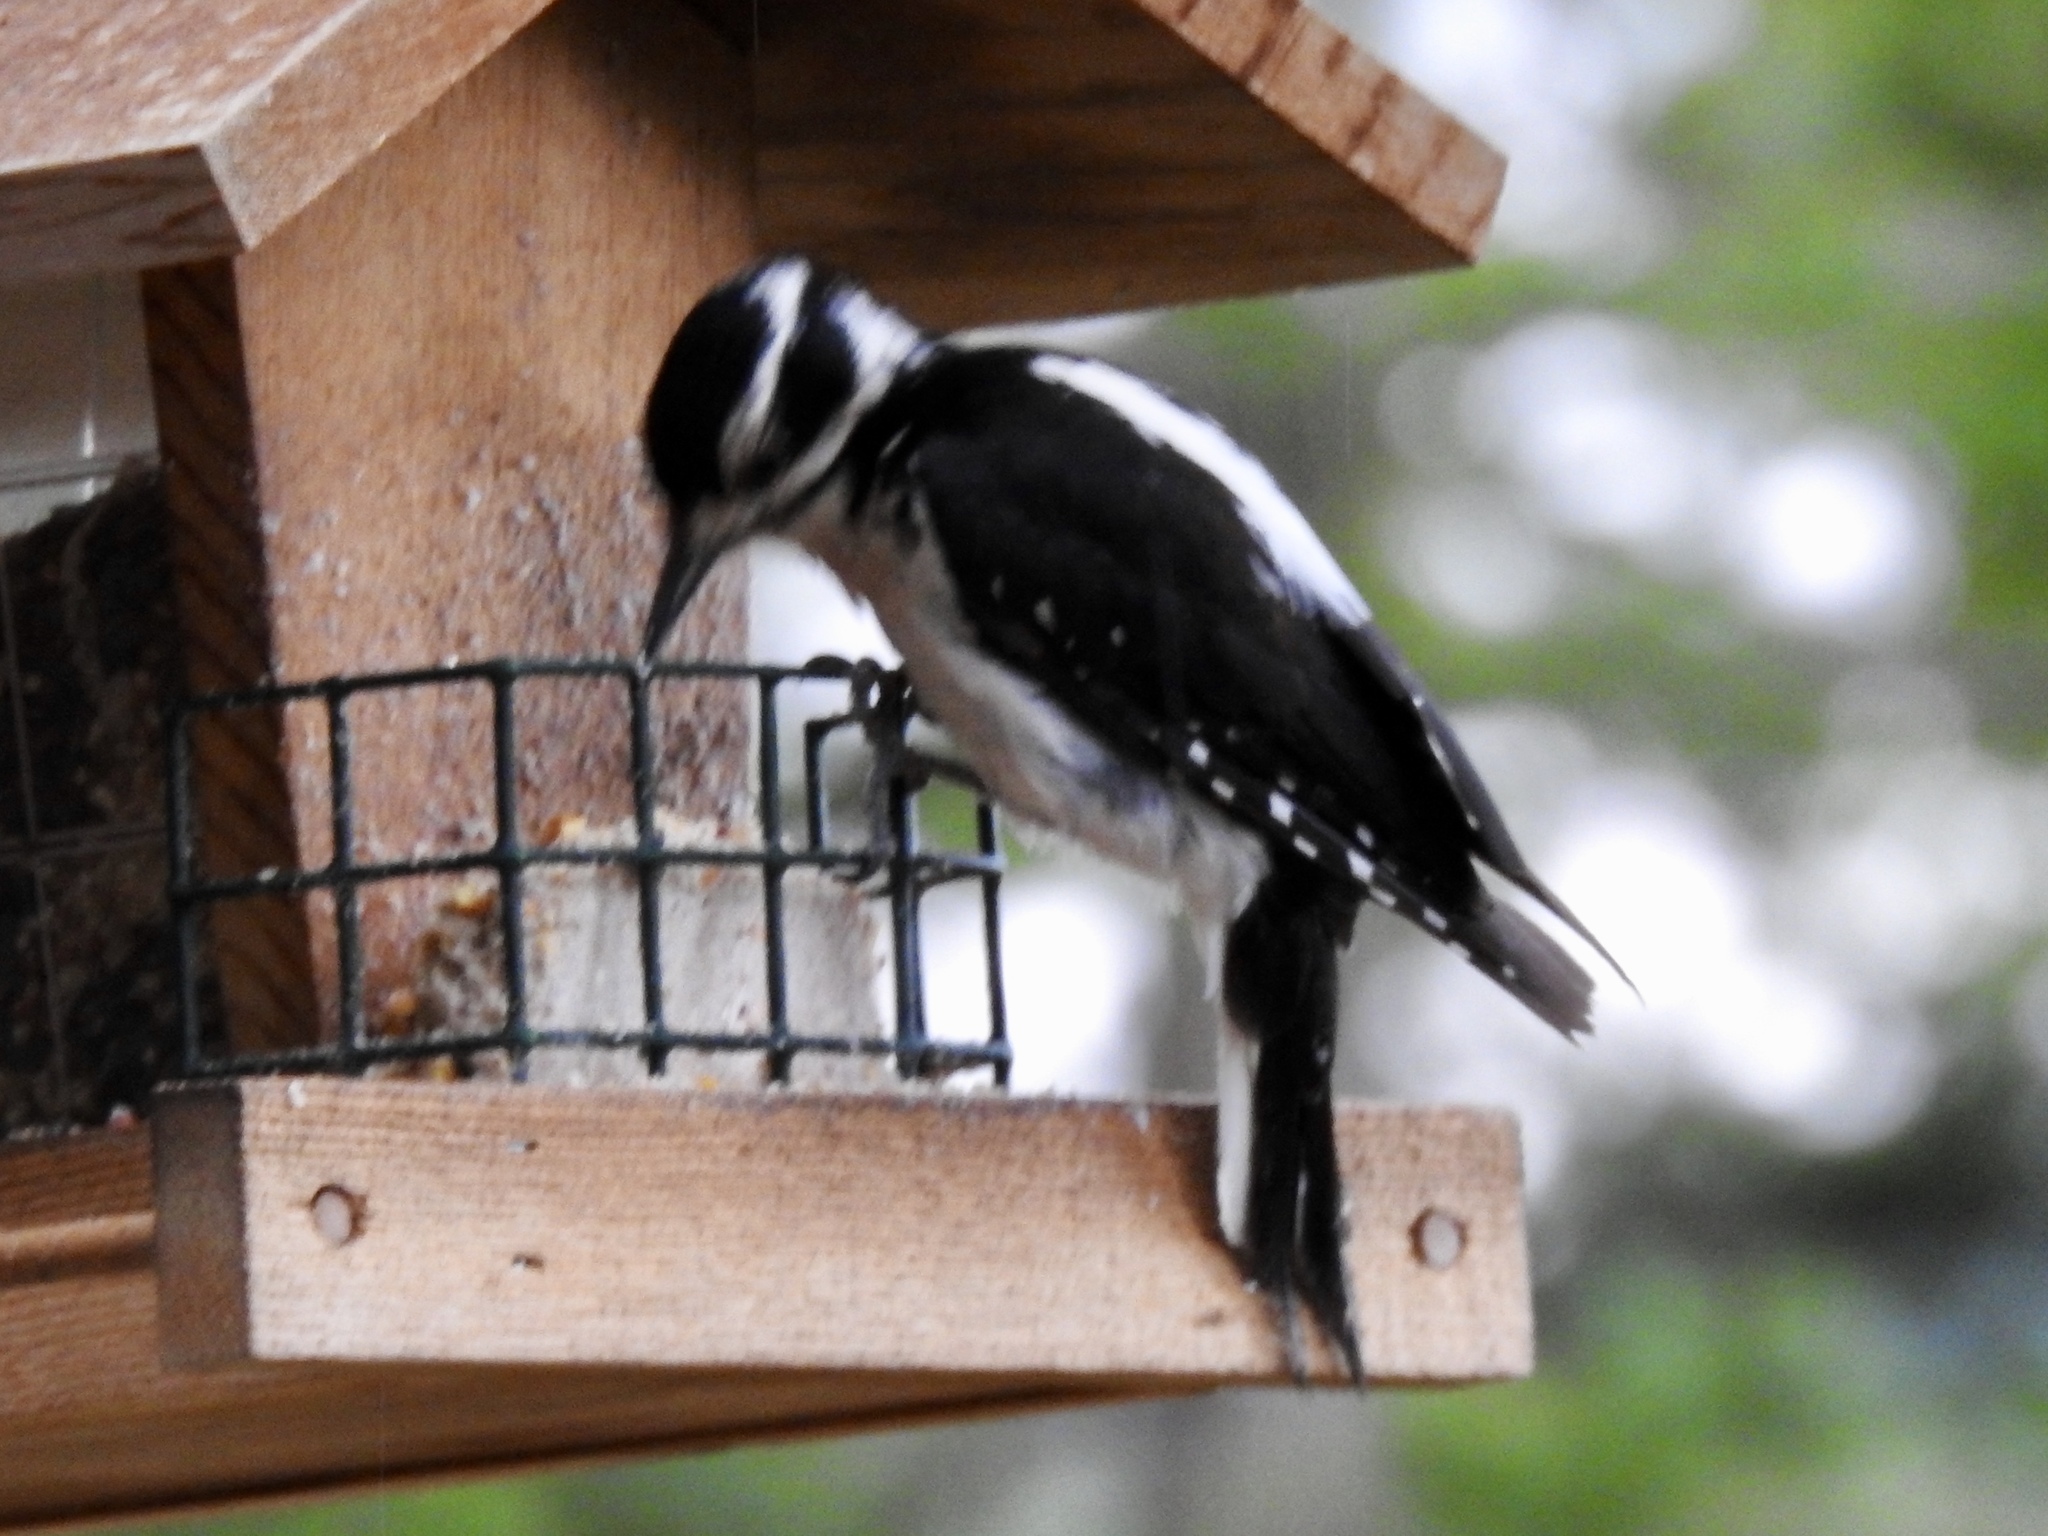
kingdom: Animalia
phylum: Chordata
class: Aves
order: Piciformes
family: Picidae
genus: Leuconotopicus
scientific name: Leuconotopicus villosus
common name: Hairy woodpecker
